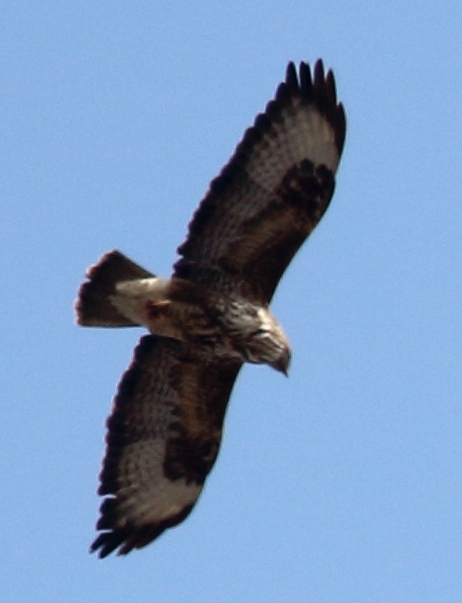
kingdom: Animalia
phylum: Chordata
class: Aves
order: Accipitriformes
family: Accipitridae
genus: Buteo
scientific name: Buteo buteo
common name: Common buzzard
